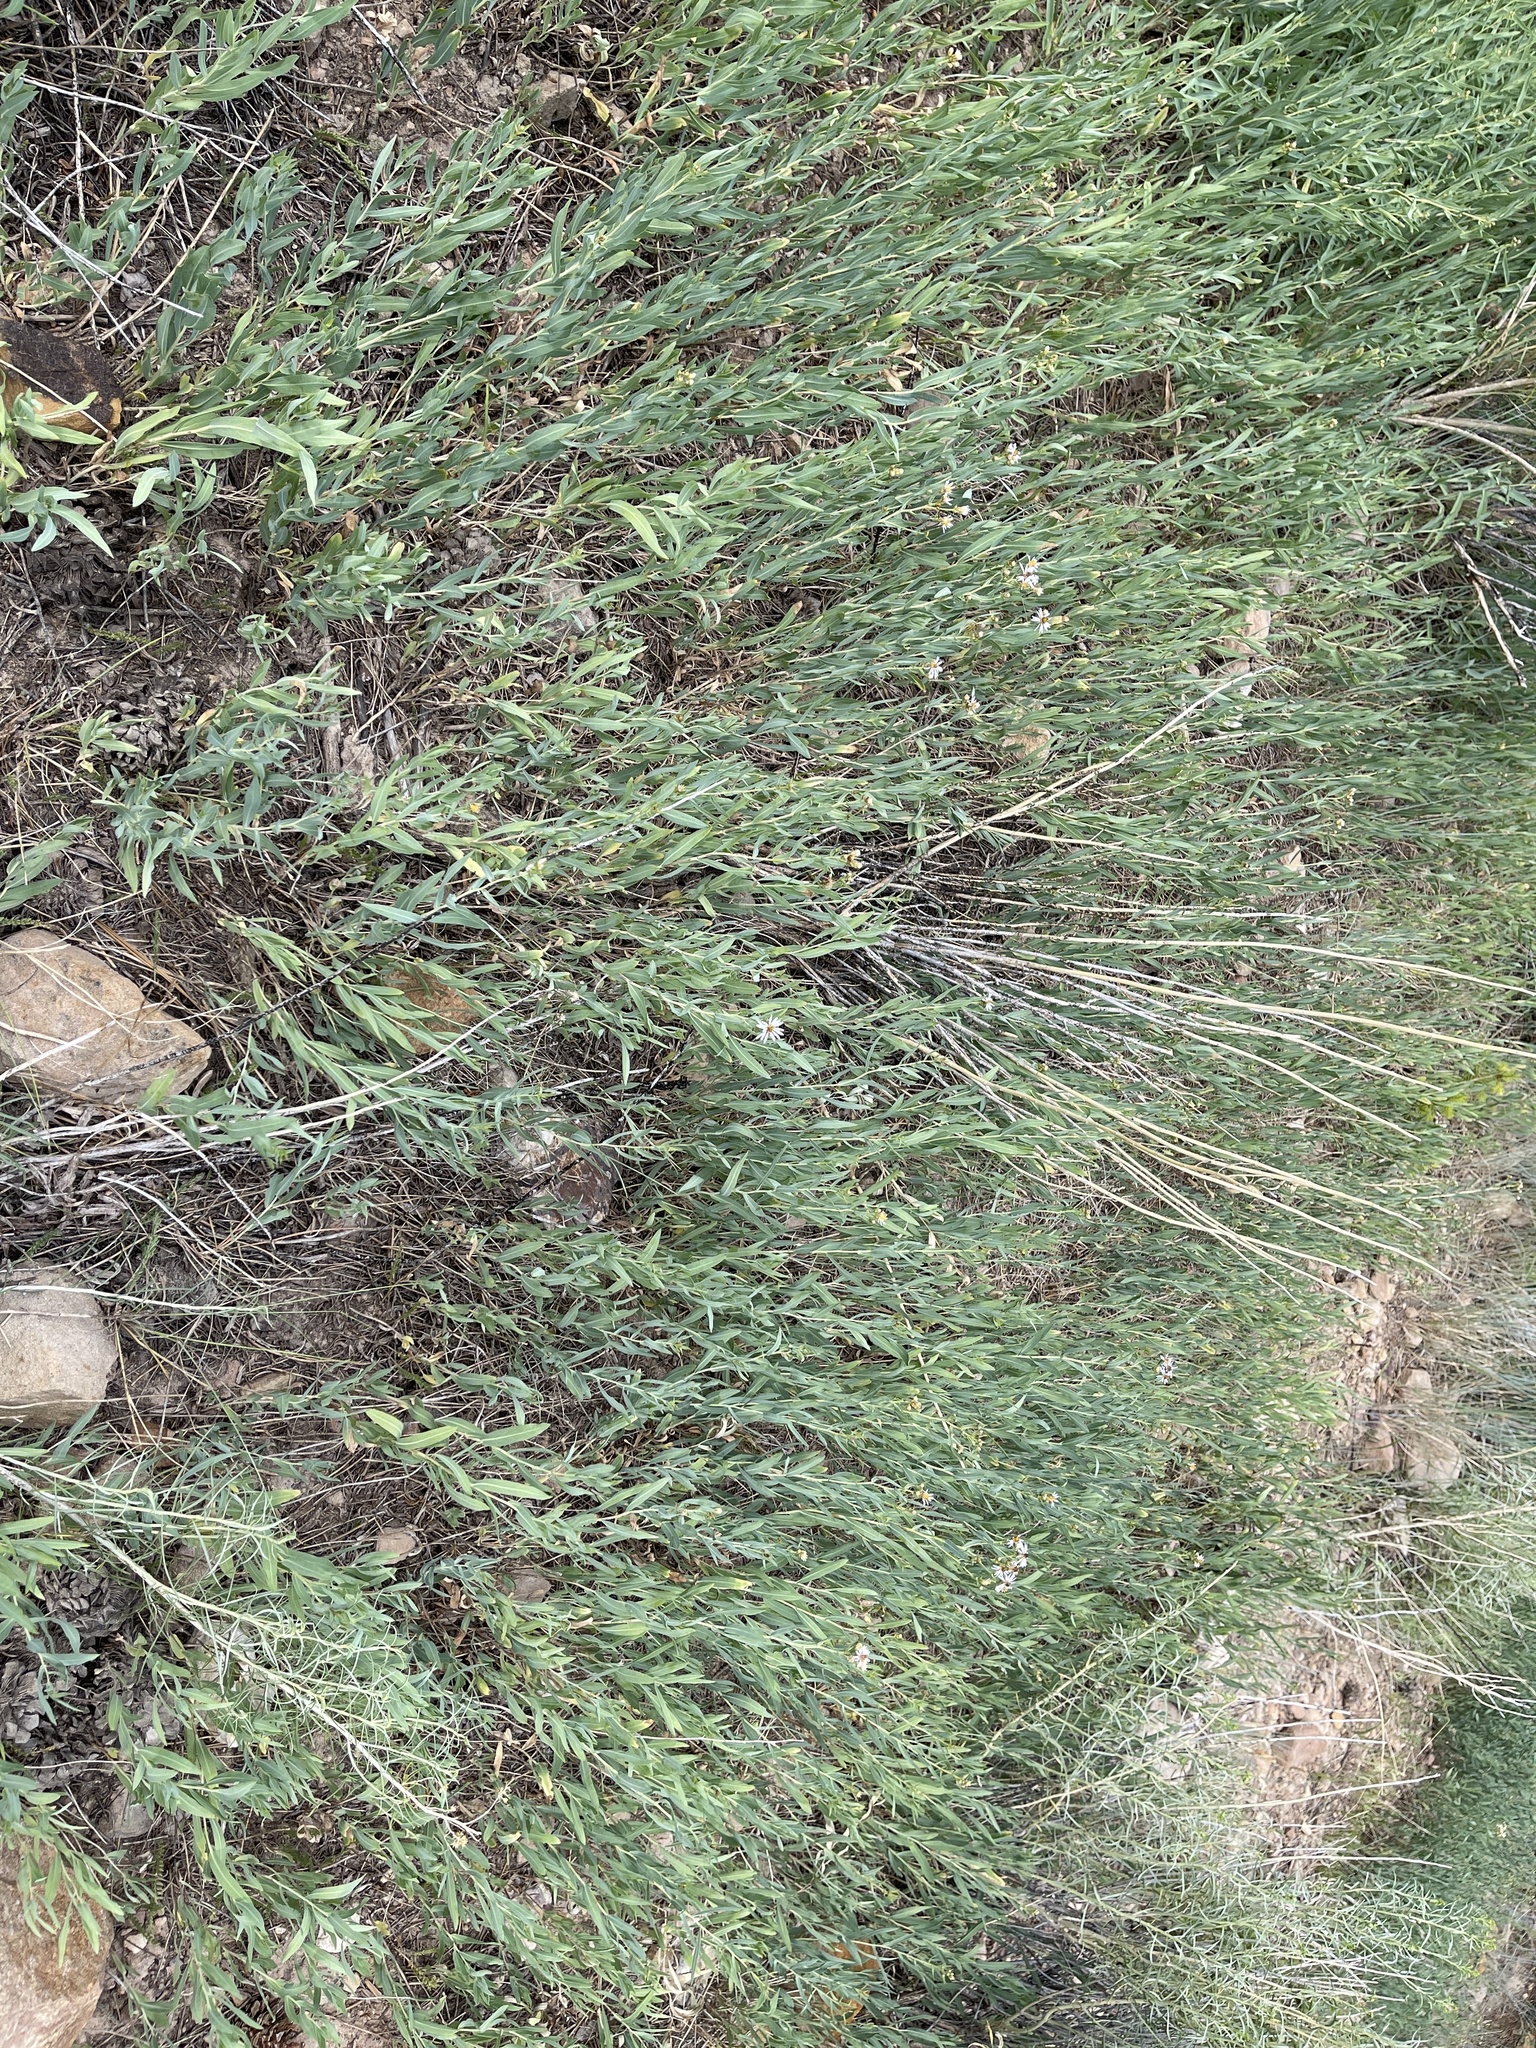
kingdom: Plantae
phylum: Tracheophyta
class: Magnoliopsida
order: Asterales
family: Asteraceae
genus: Eurybia
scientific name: Eurybia glauca
